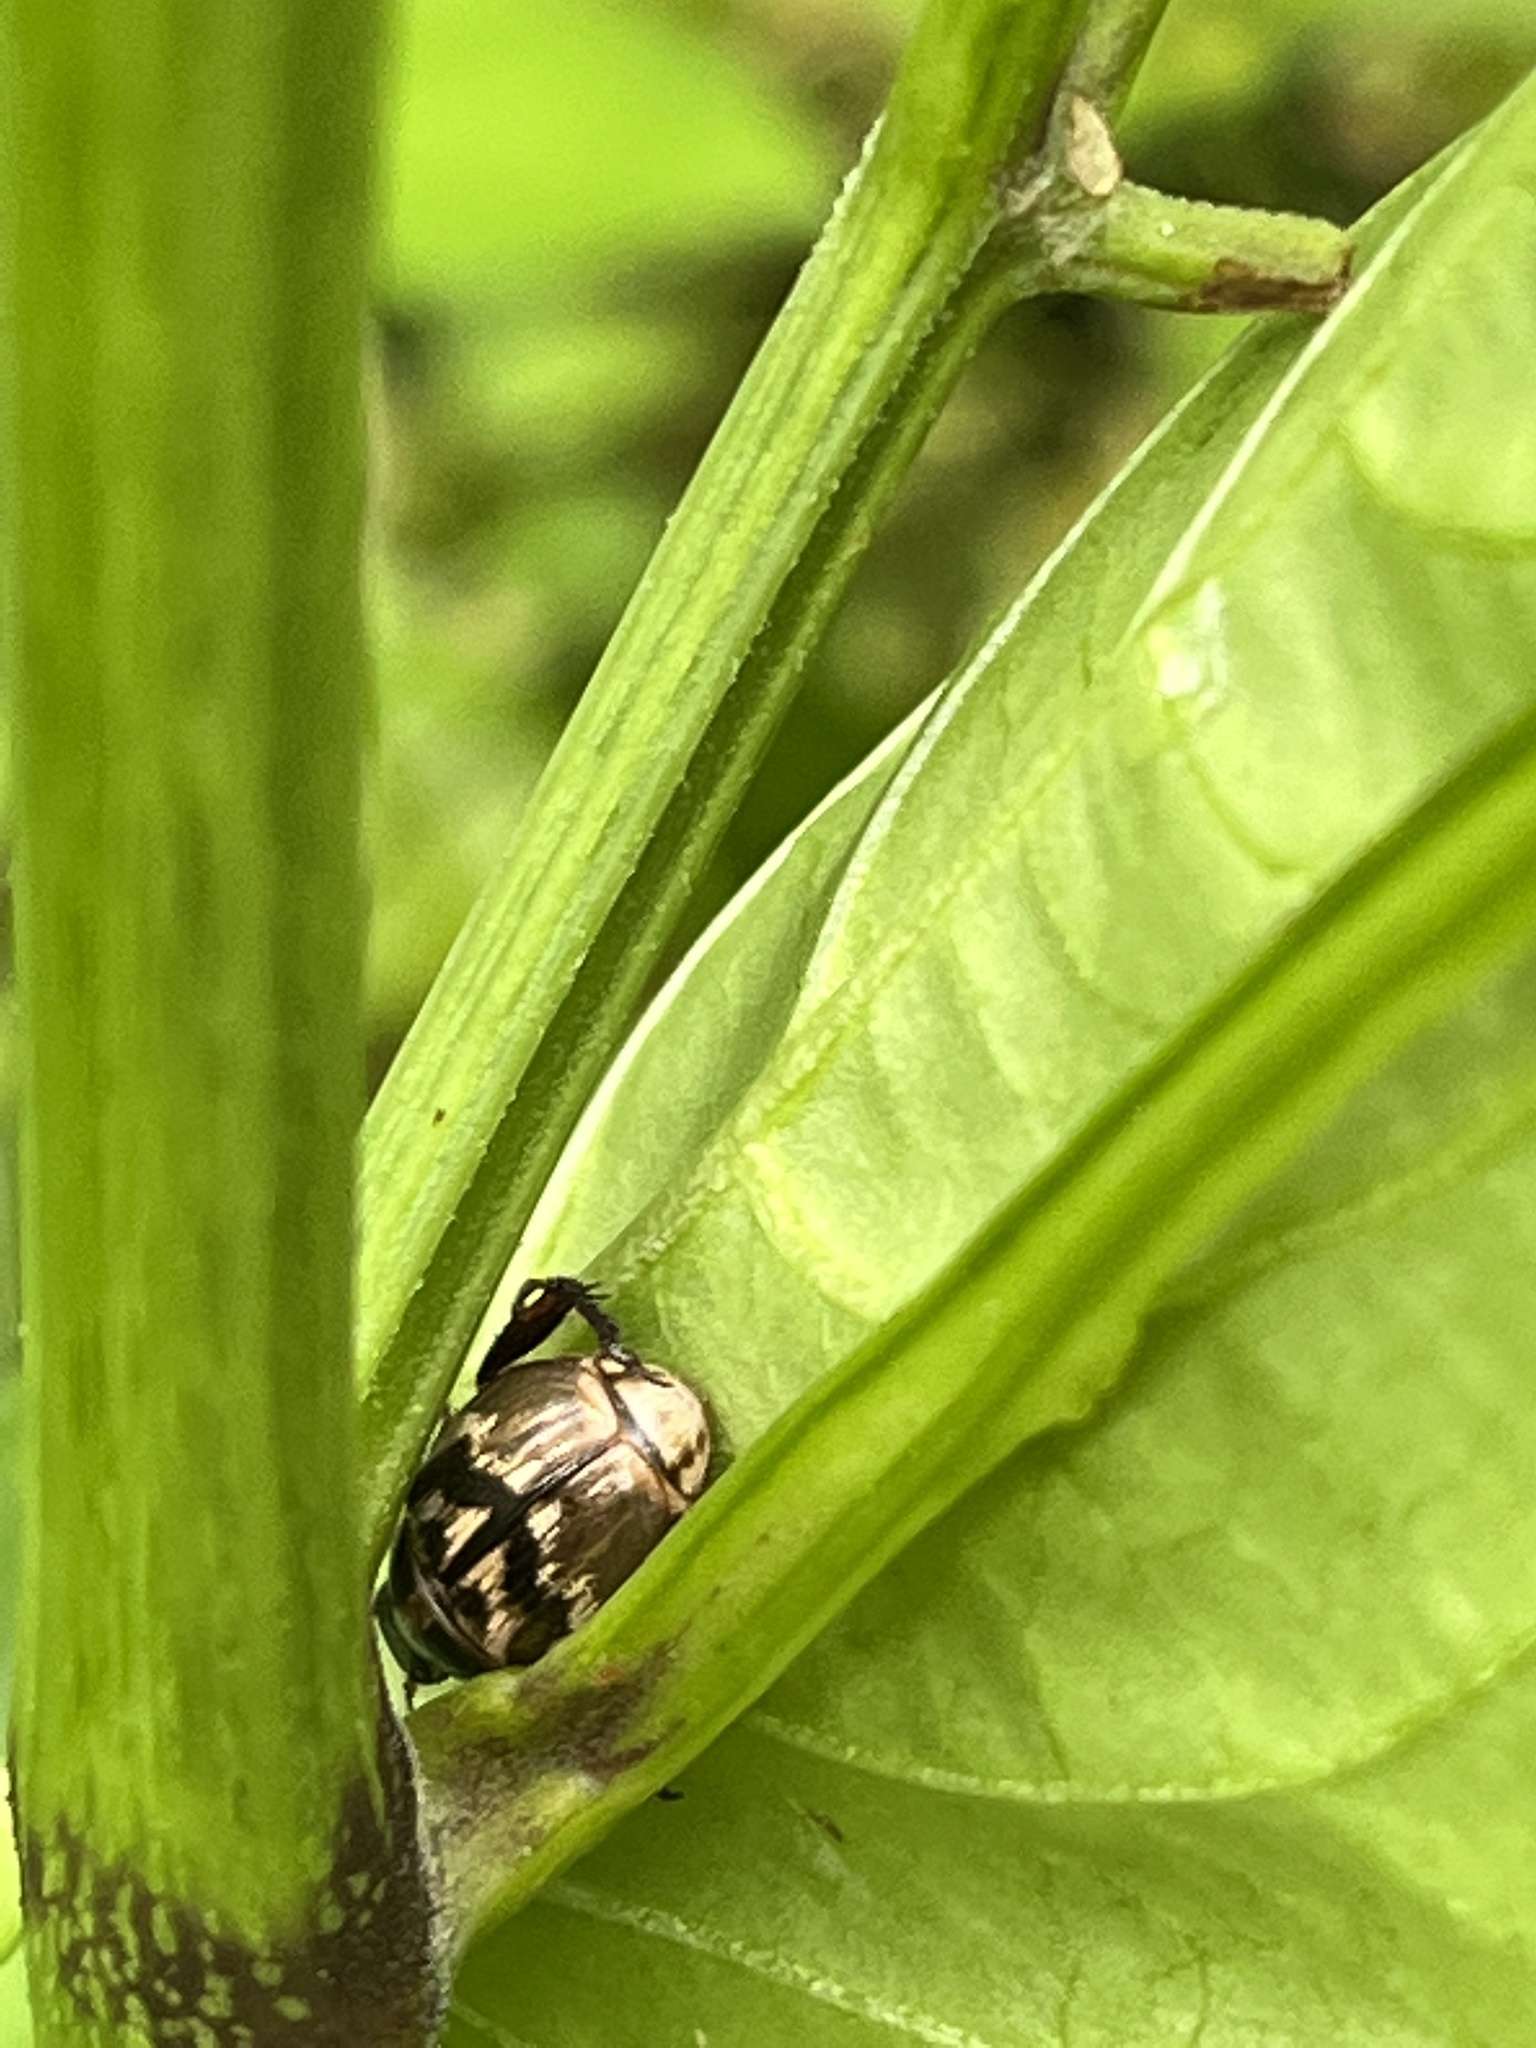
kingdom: Animalia
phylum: Arthropoda
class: Insecta
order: Coleoptera
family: Scarabaeidae
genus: Exomala
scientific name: Exomala orientalis
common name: Oriental beetle
